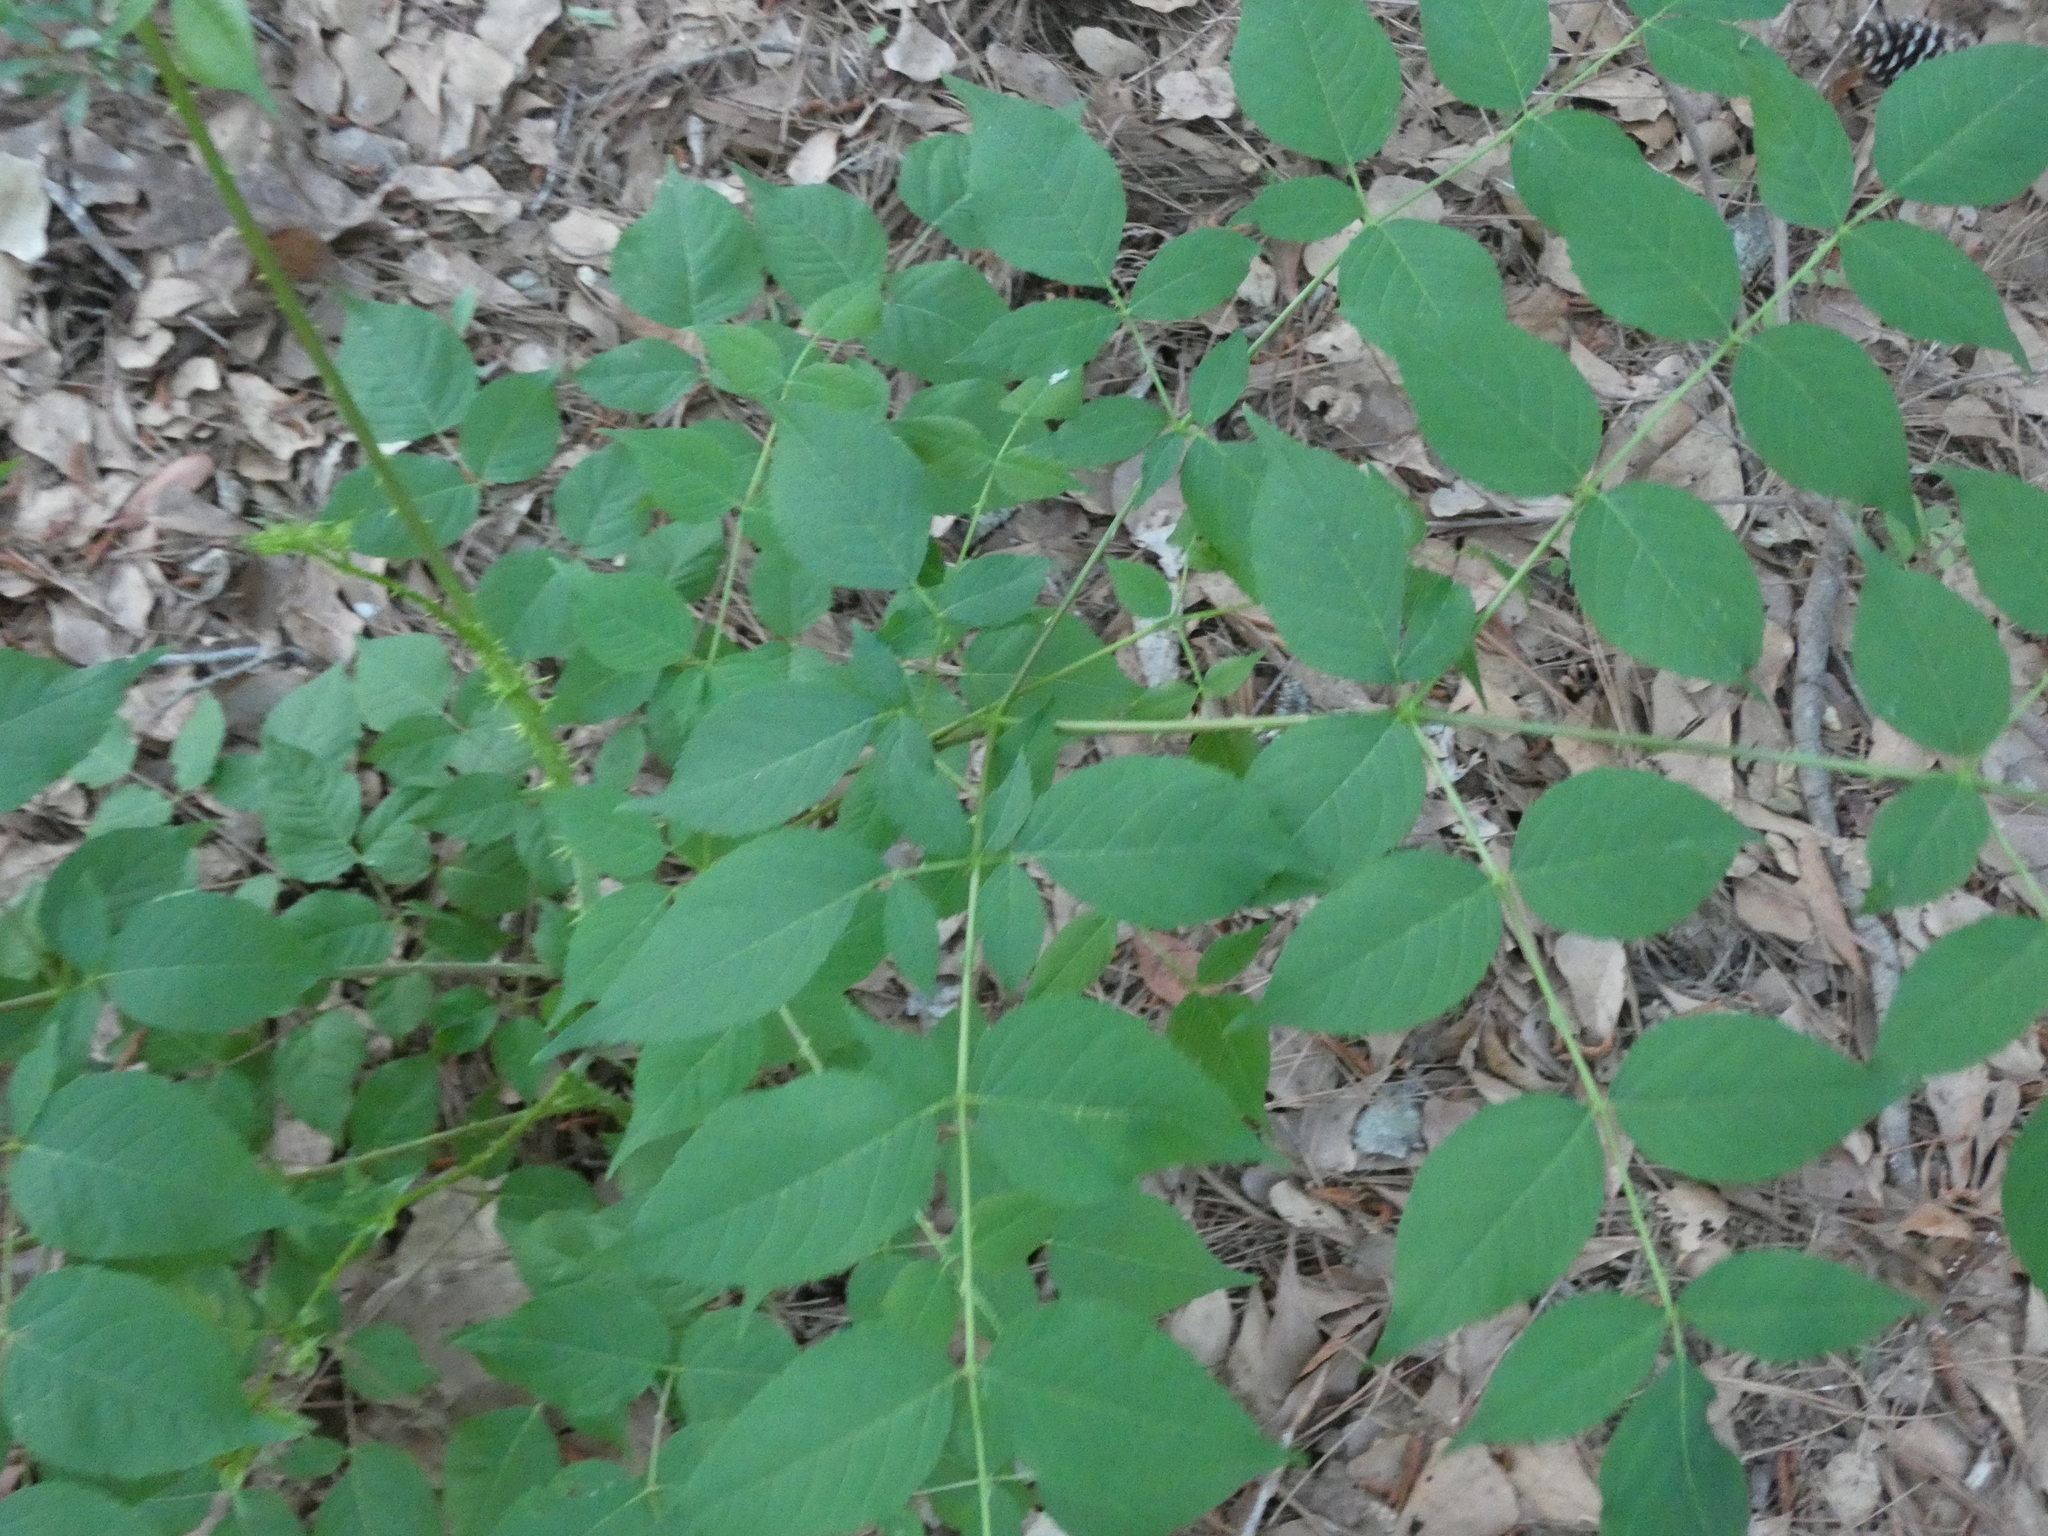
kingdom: Plantae
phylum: Tracheophyta
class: Magnoliopsida
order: Apiales
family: Araliaceae
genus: Aralia
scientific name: Aralia spinosa
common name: Hercules'-club
